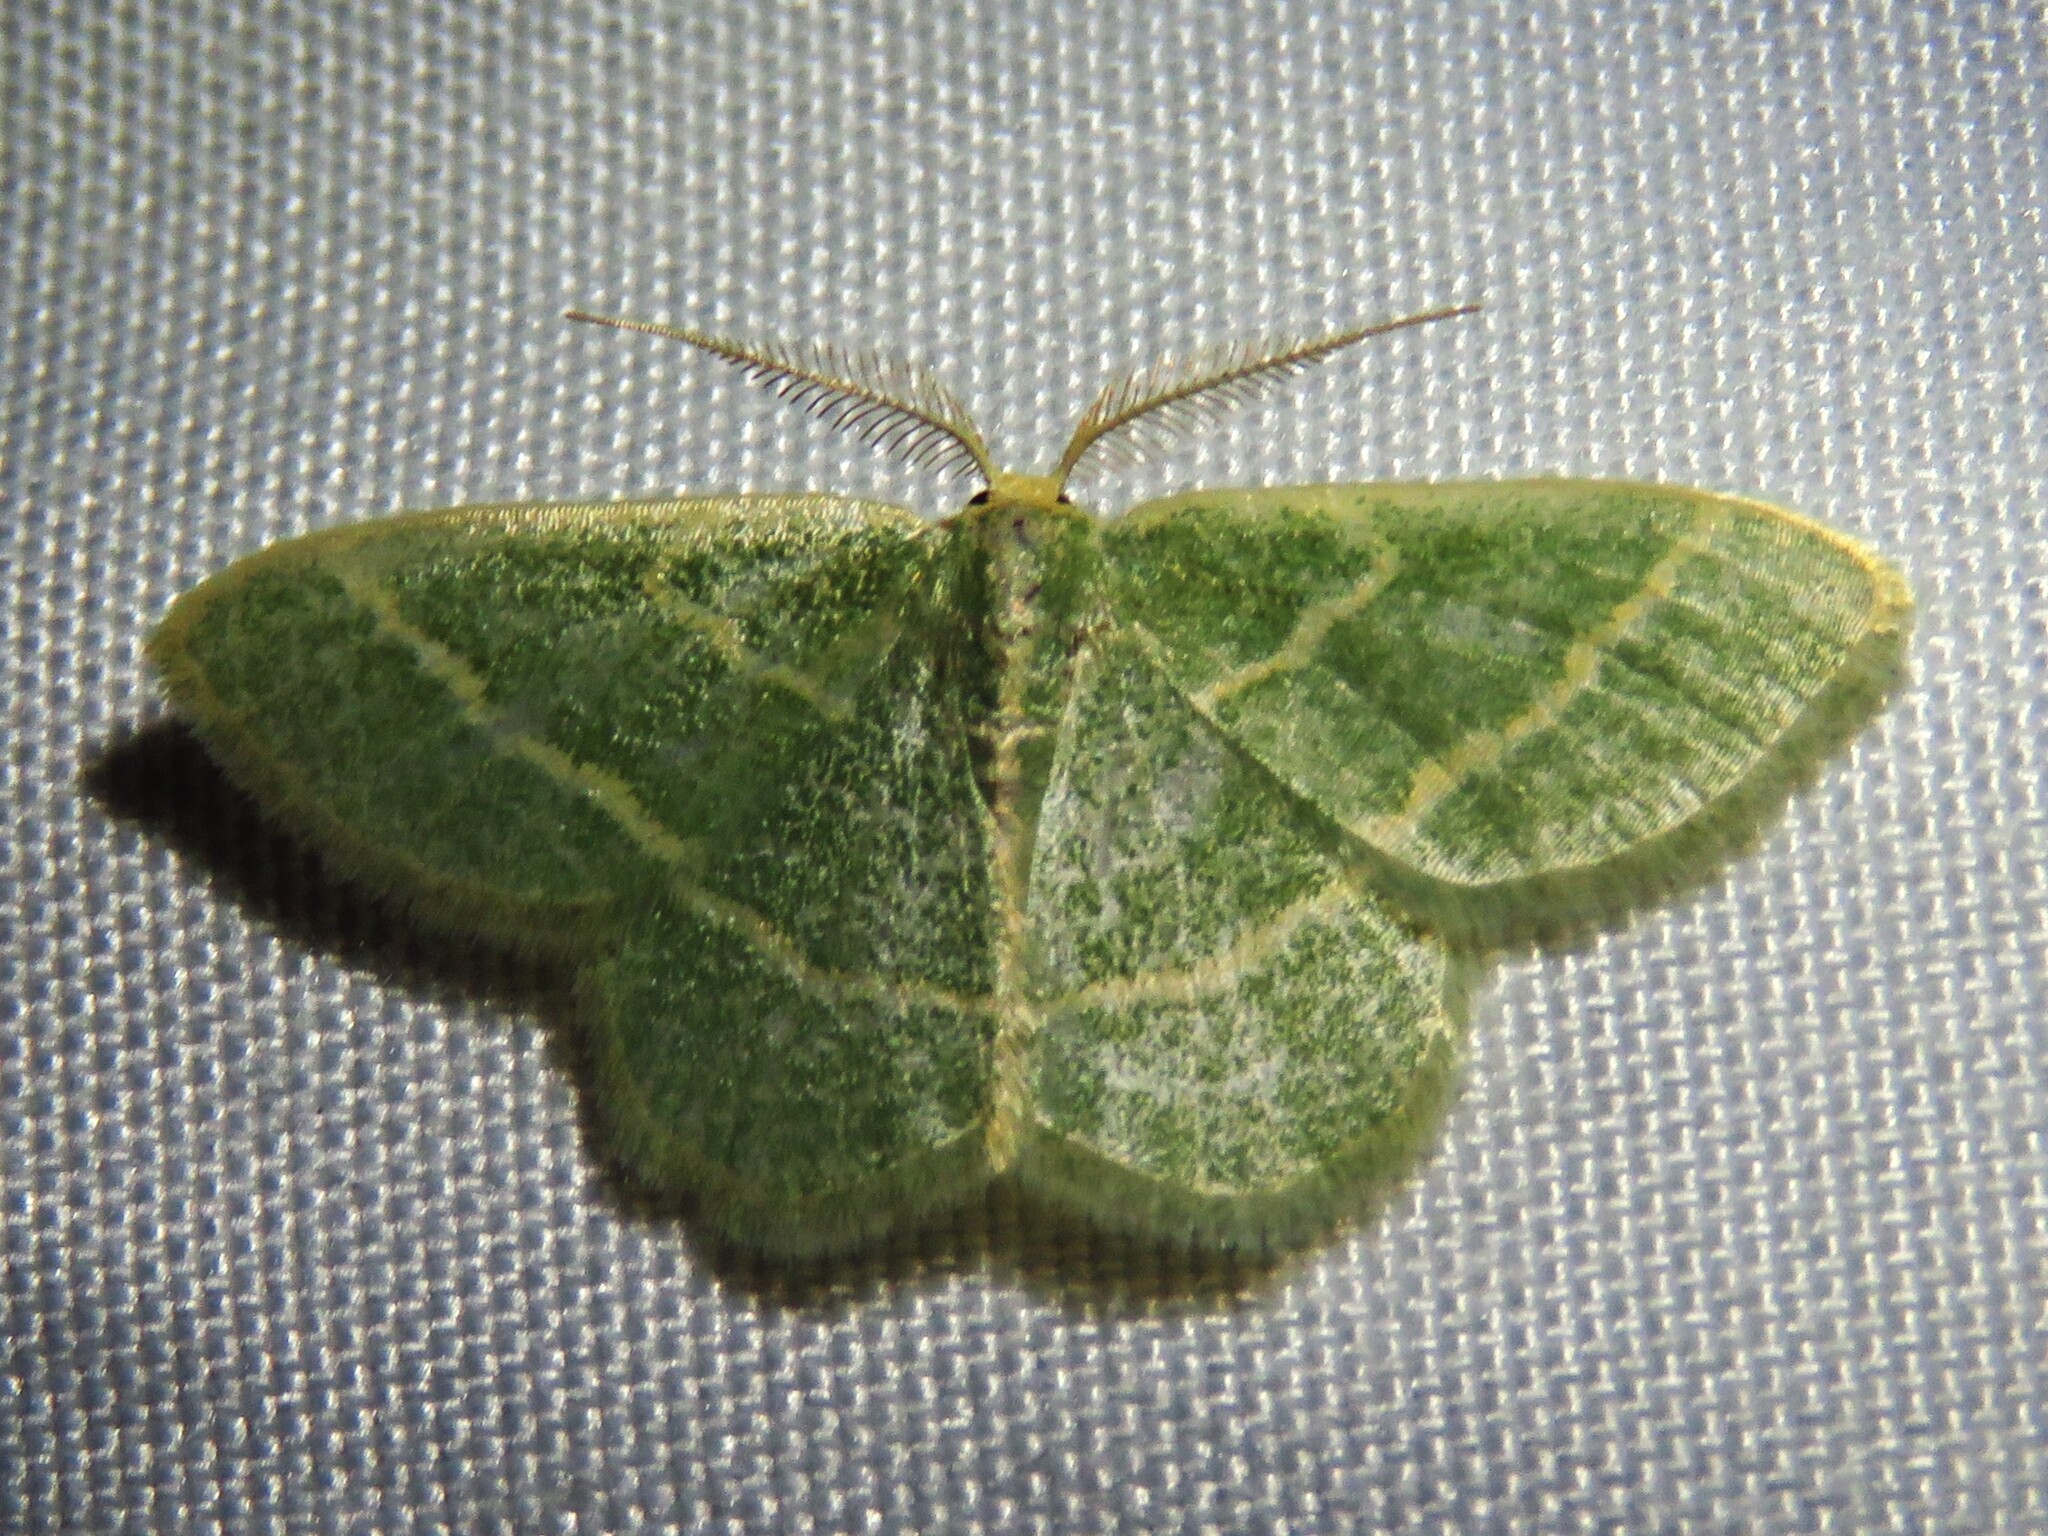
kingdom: Animalia
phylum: Arthropoda
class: Insecta
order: Lepidoptera
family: Geometridae
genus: Chlorochlamys
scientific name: Chlorochlamys chloroleucaria
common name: Blackberry looper
